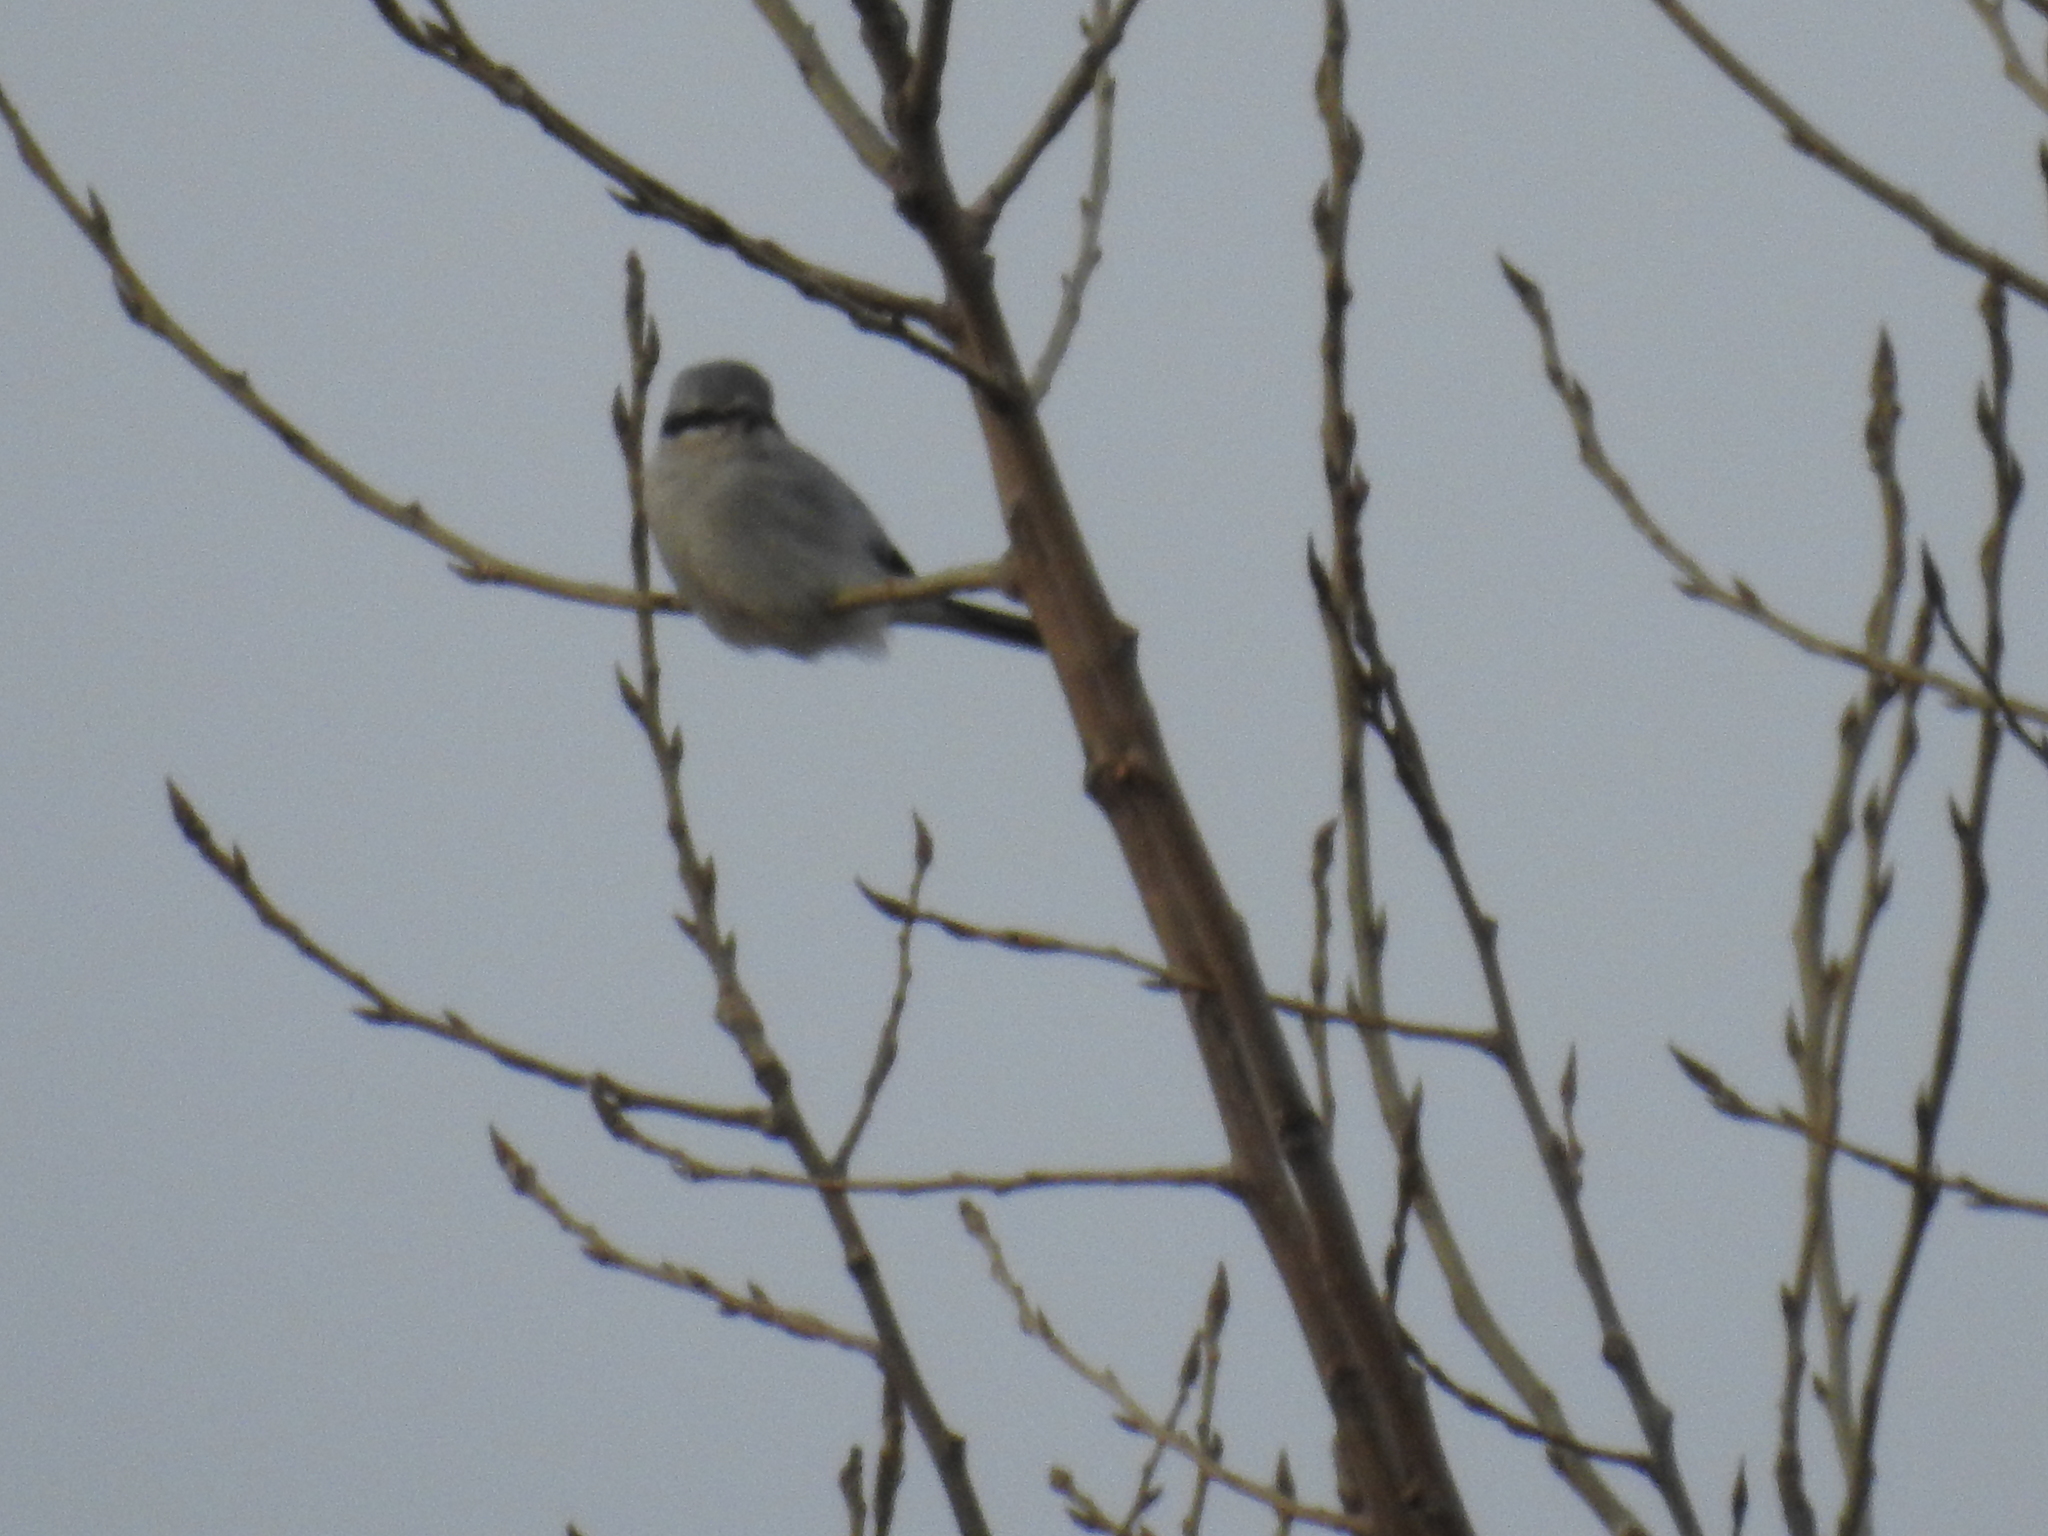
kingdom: Animalia
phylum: Chordata
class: Aves
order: Passeriformes
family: Laniidae
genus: Lanius
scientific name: Lanius borealis
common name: Northern shrike
